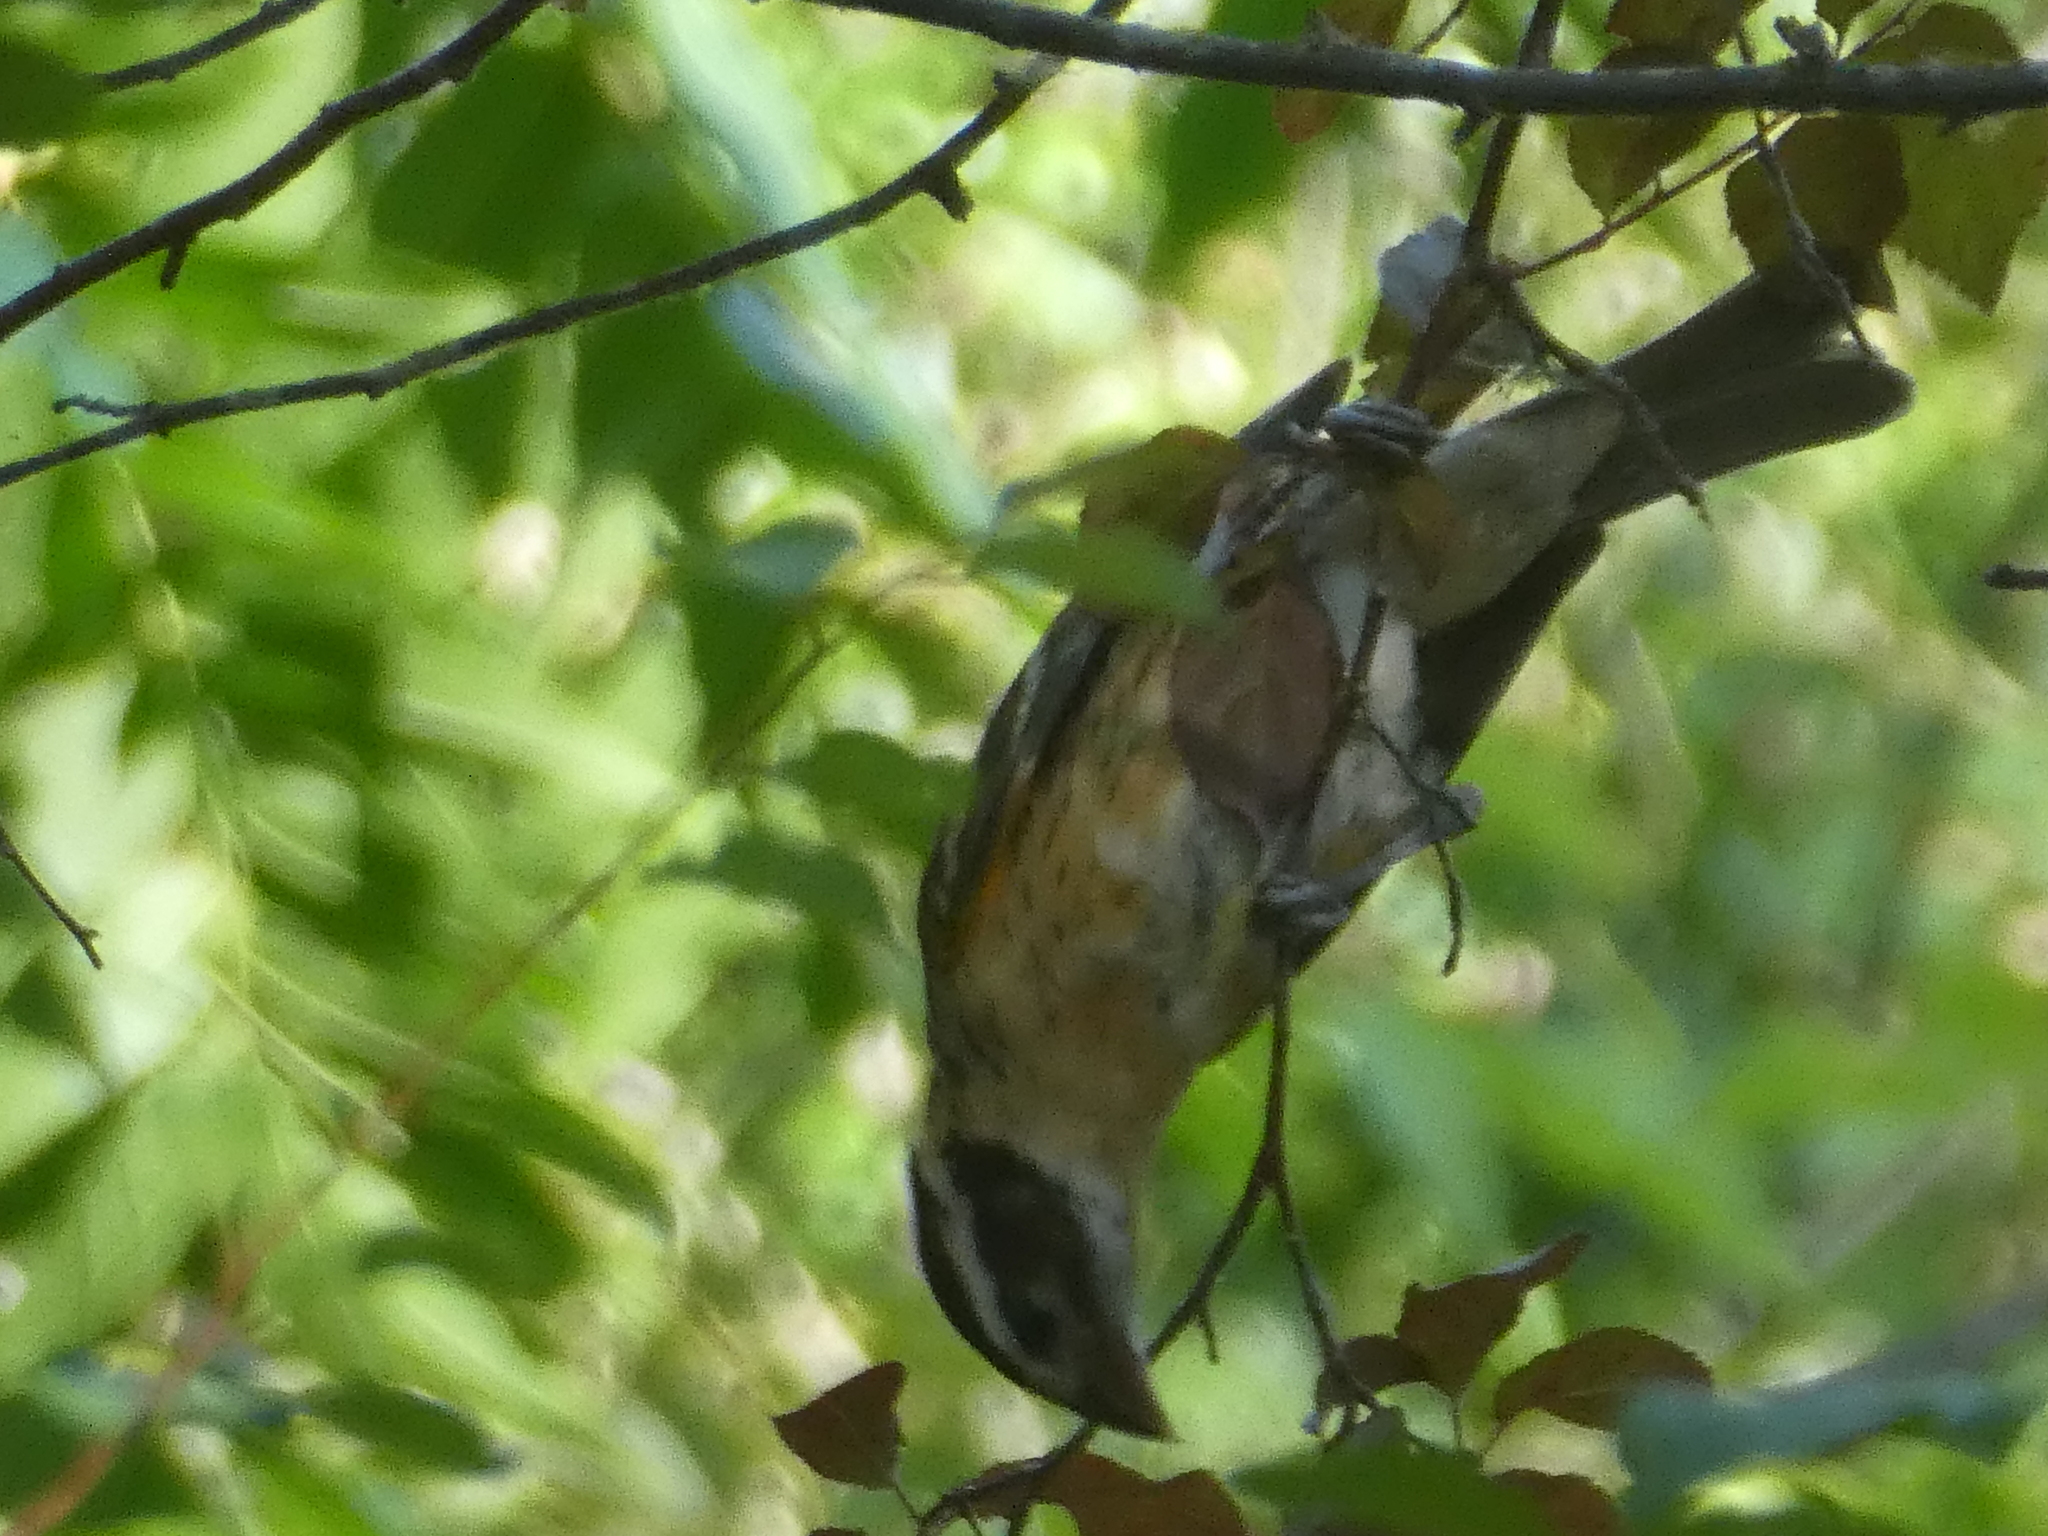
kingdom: Animalia
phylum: Chordata
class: Aves
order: Passeriformes
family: Cardinalidae
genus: Pheucticus
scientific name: Pheucticus melanocephalus
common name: Black-headed grosbeak
